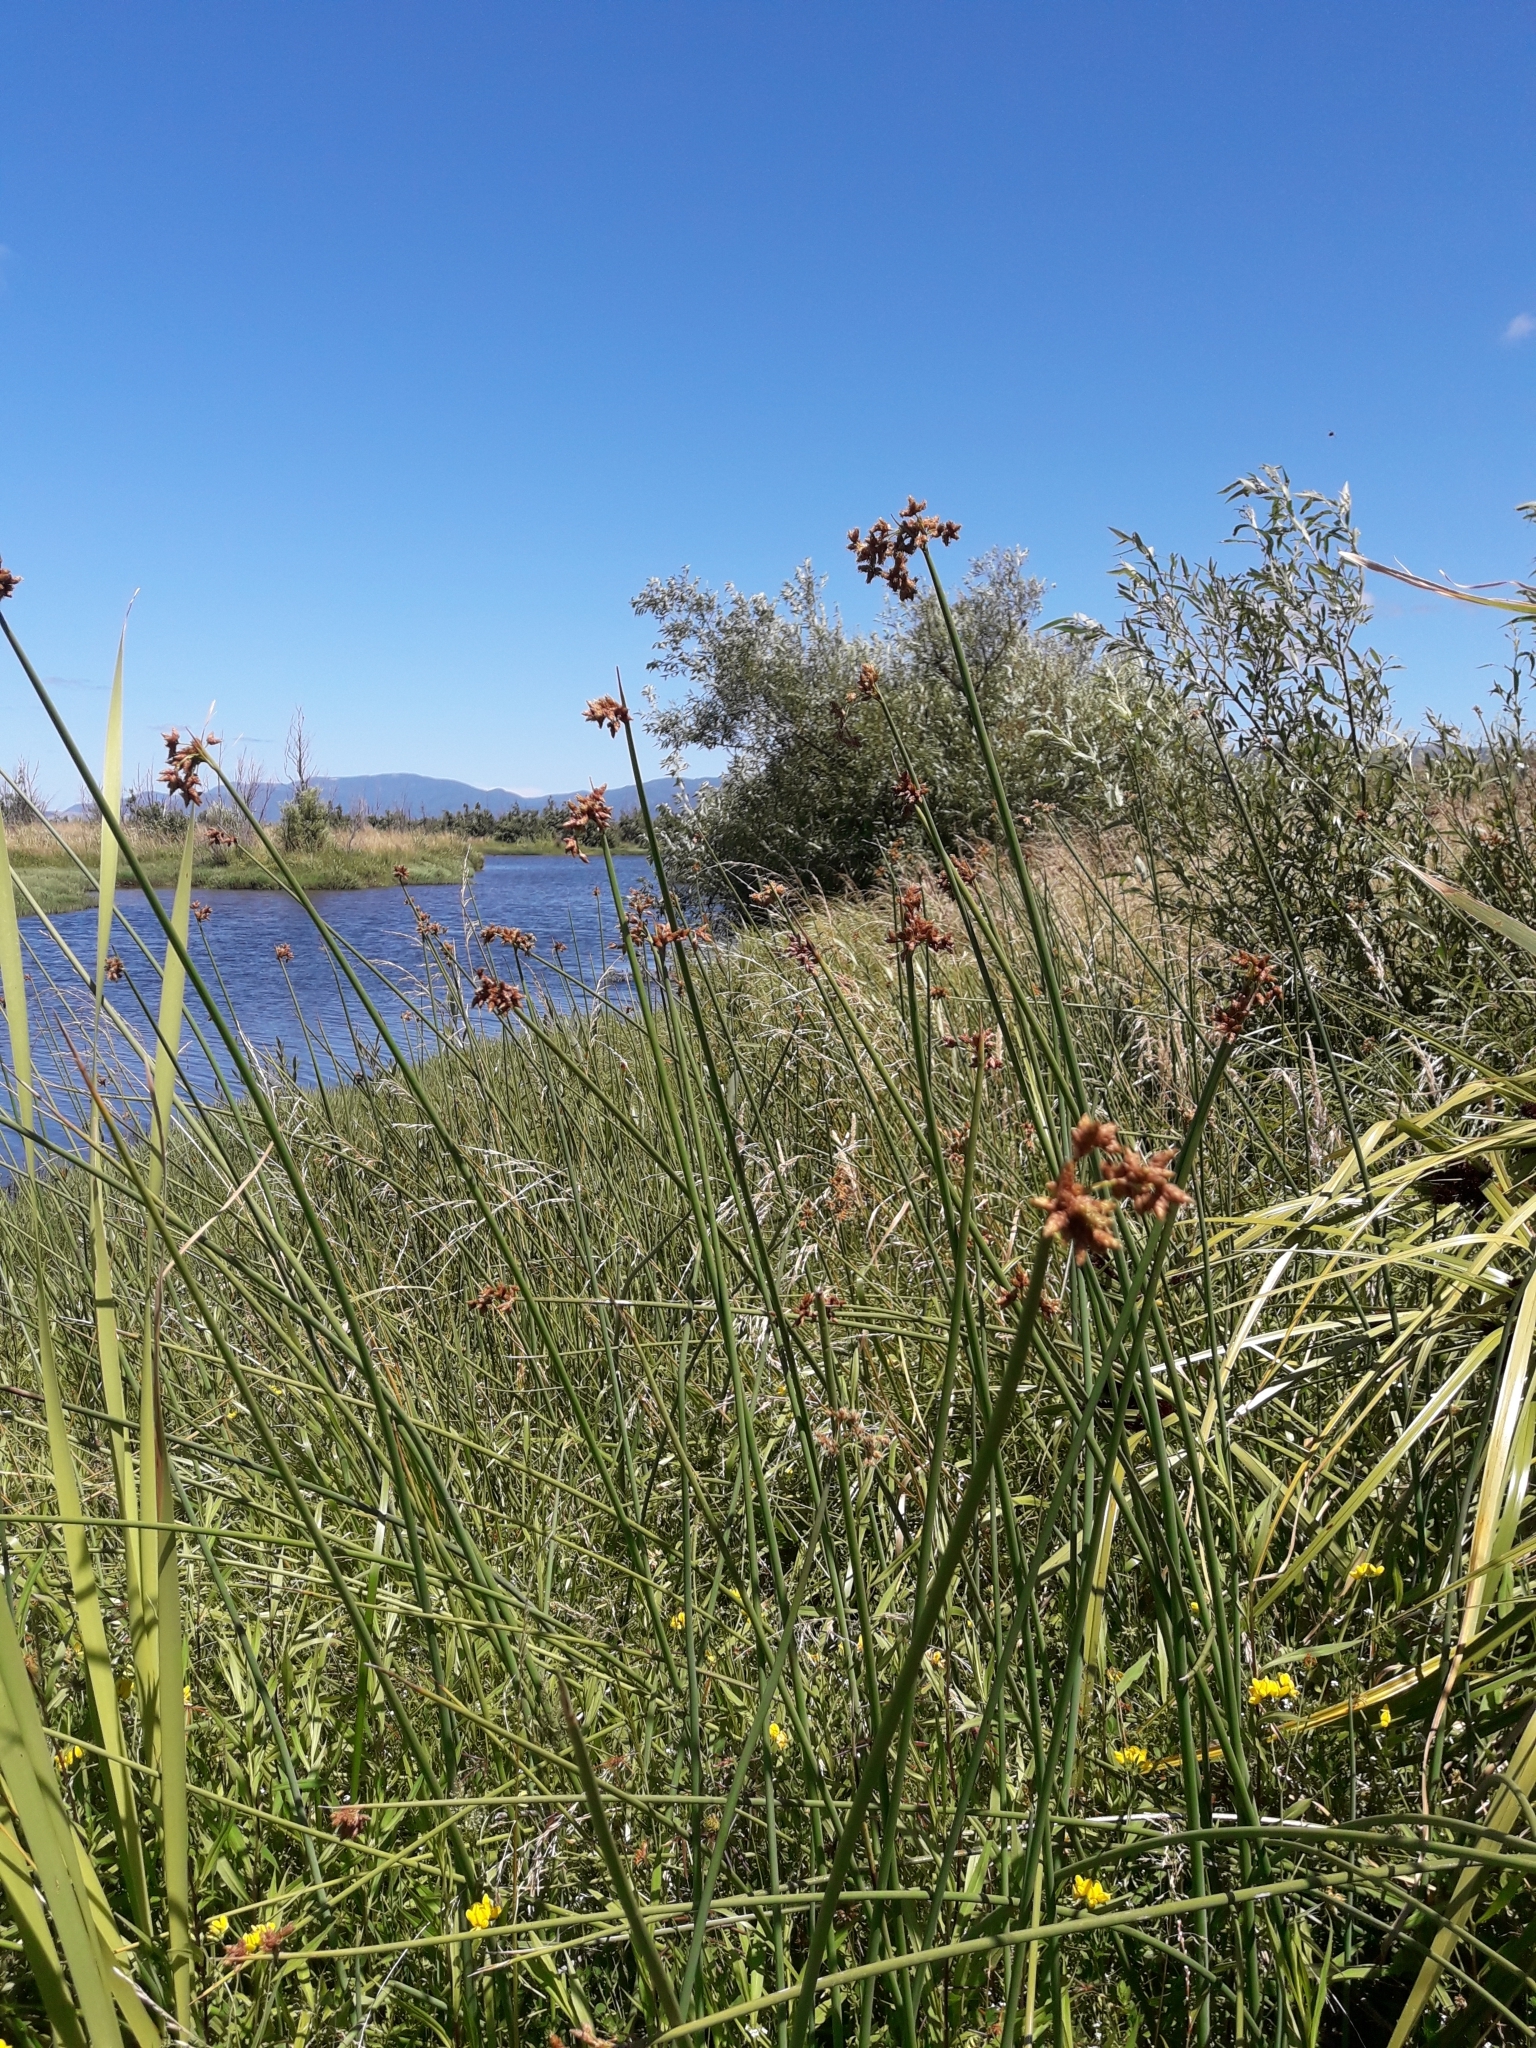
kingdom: Plantae
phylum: Tracheophyta
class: Liliopsida
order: Poales
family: Cyperaceae
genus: Schoenoplectus
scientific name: Schoenoplectus tabernaemontani
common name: Grey club-rush
